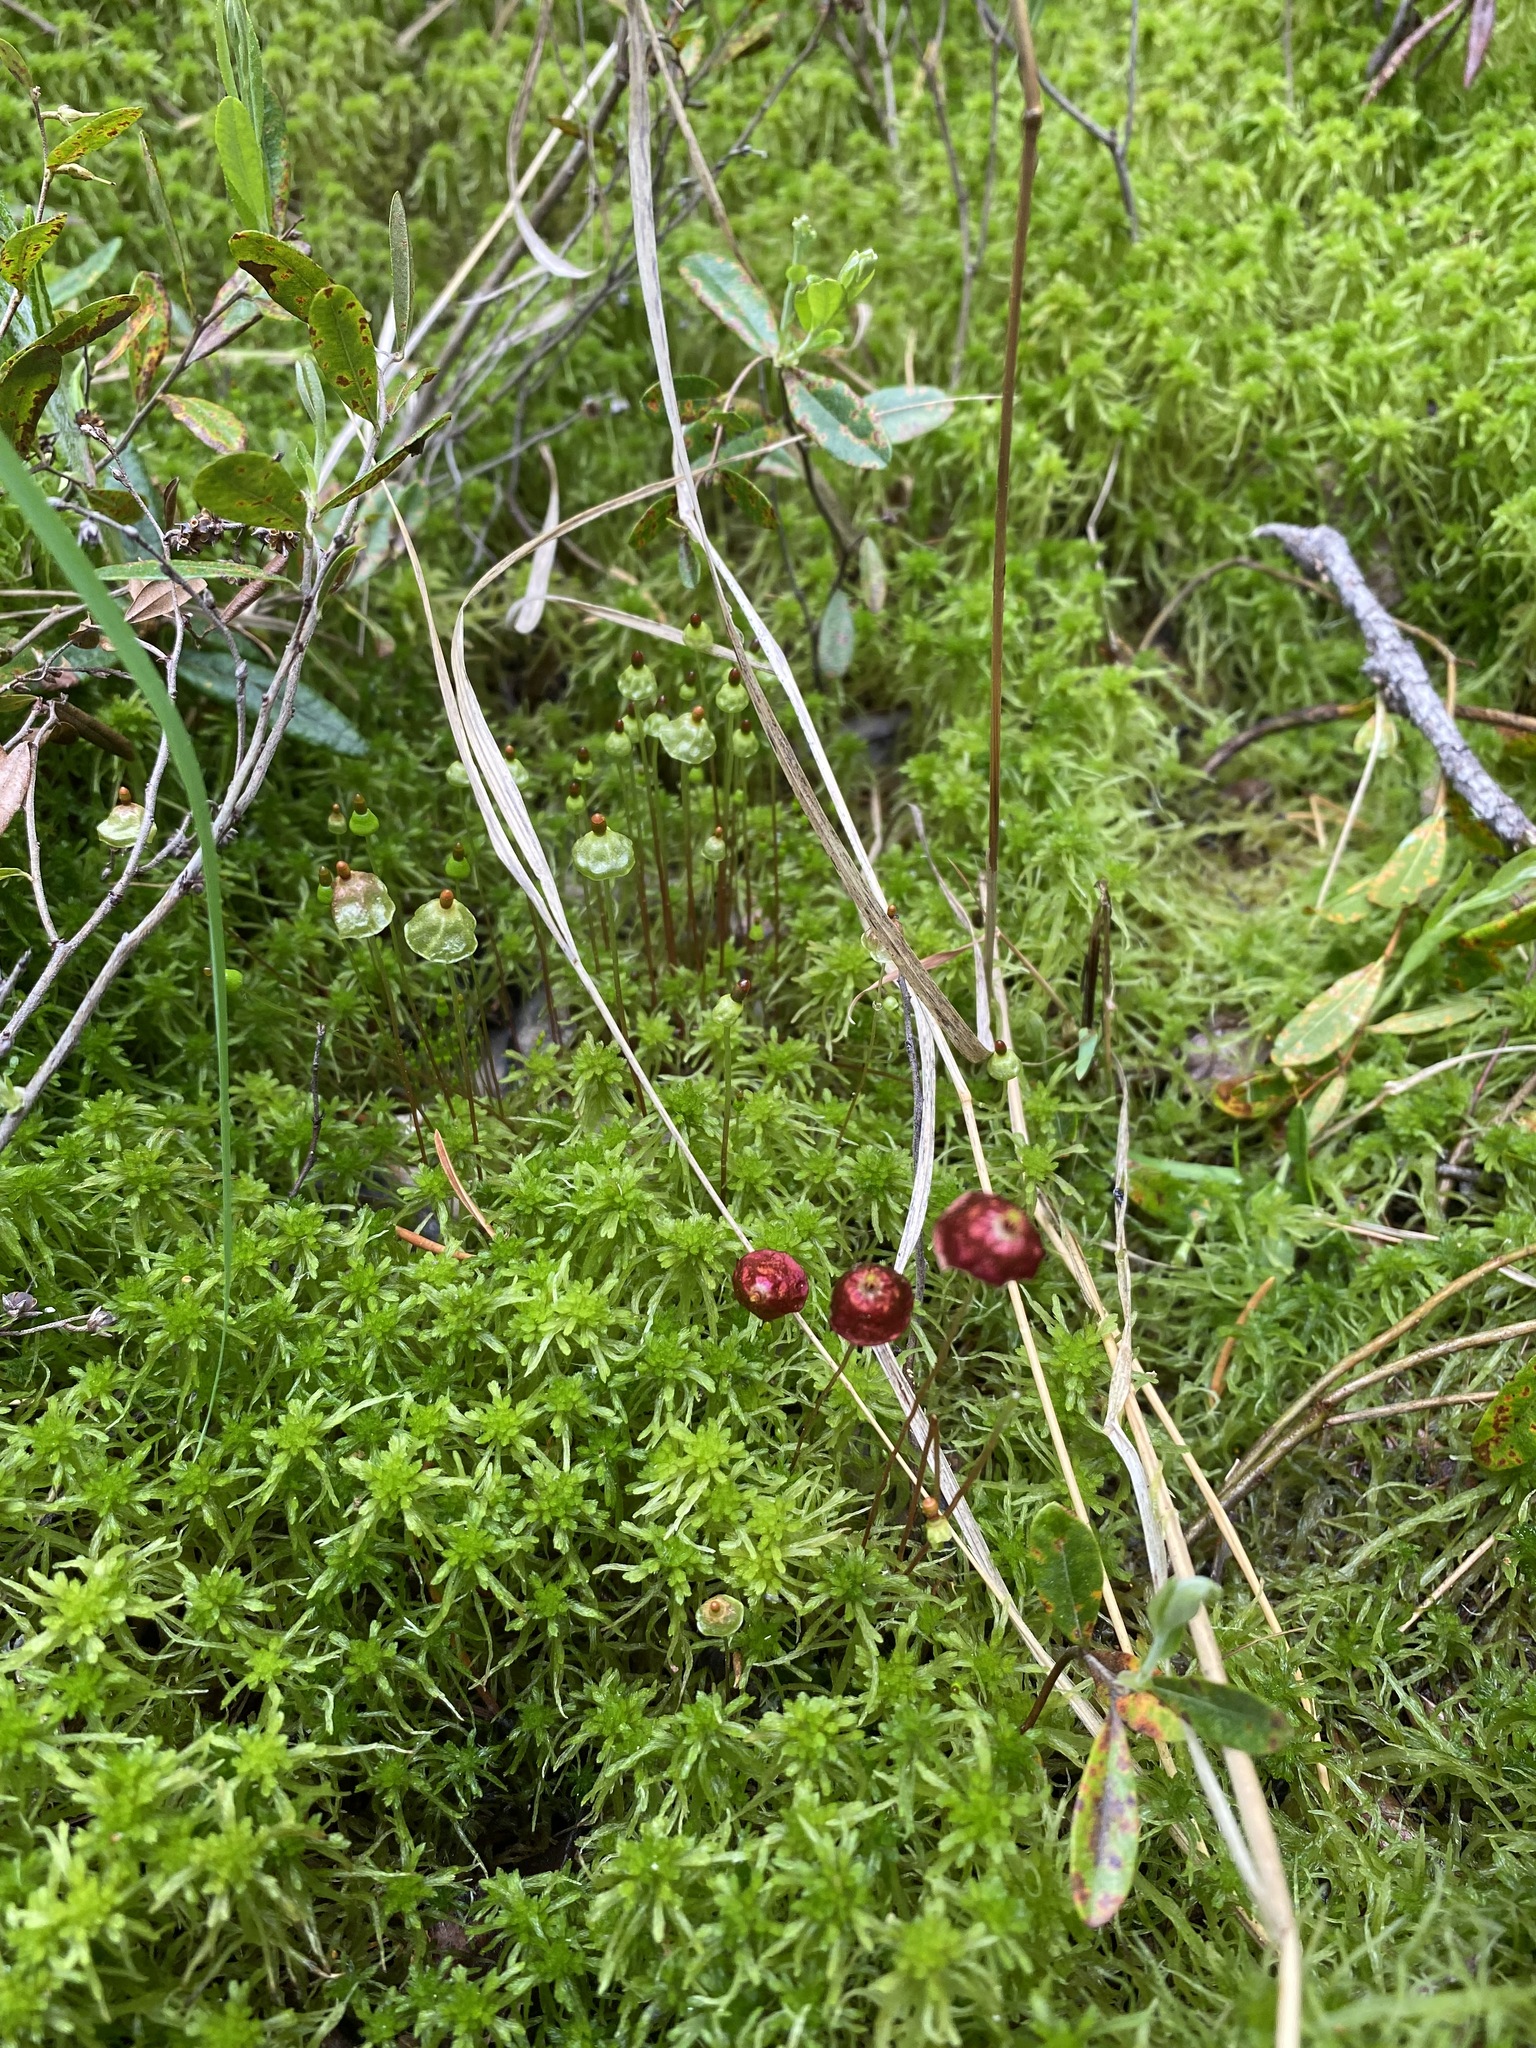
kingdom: Plantae
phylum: Bryophyta
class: Bryopsida
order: Splachnales
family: Splachnaceae
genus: Splachnum
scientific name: Splachnum rubrum
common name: Red dung moss
